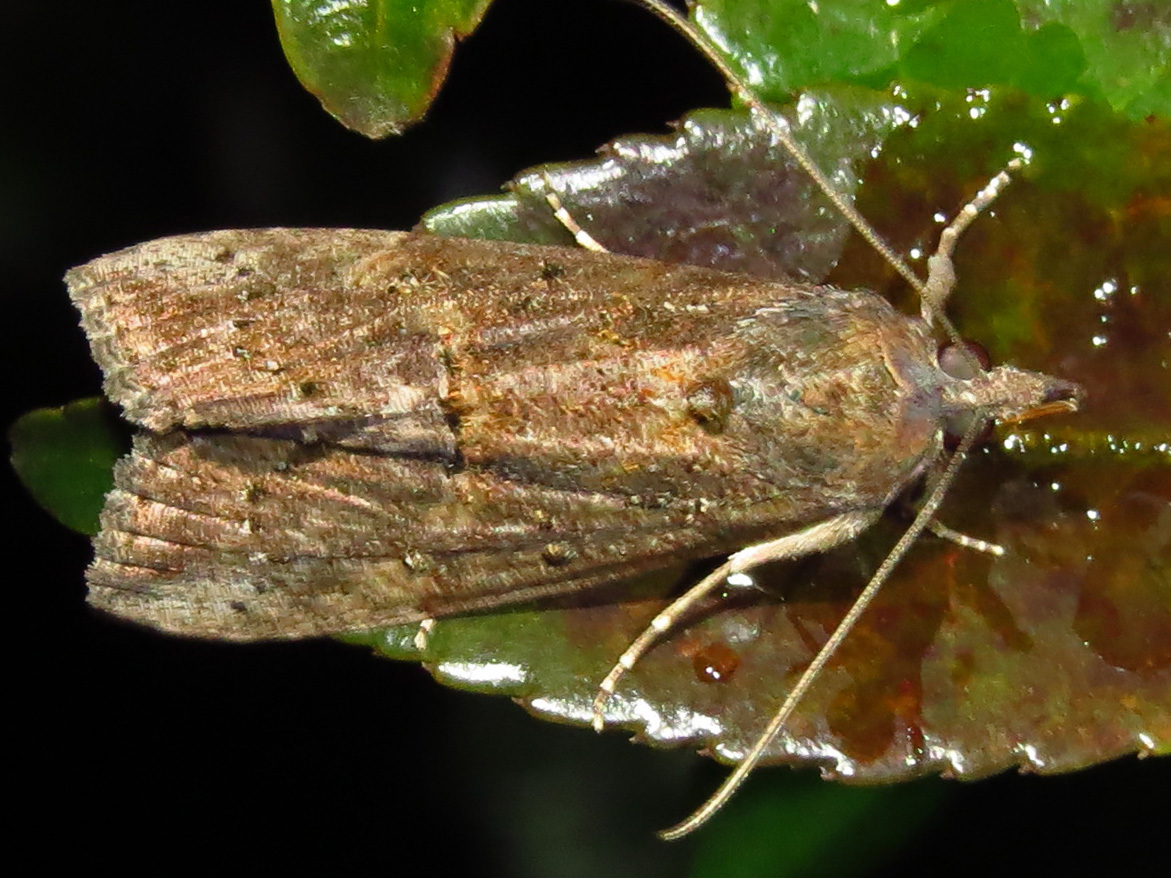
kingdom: Animalia
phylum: Arthropoda
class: Insecta
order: Lepidoptera
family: Erebidae
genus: Hypena
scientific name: Hypena scabra
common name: Green cloverworm
